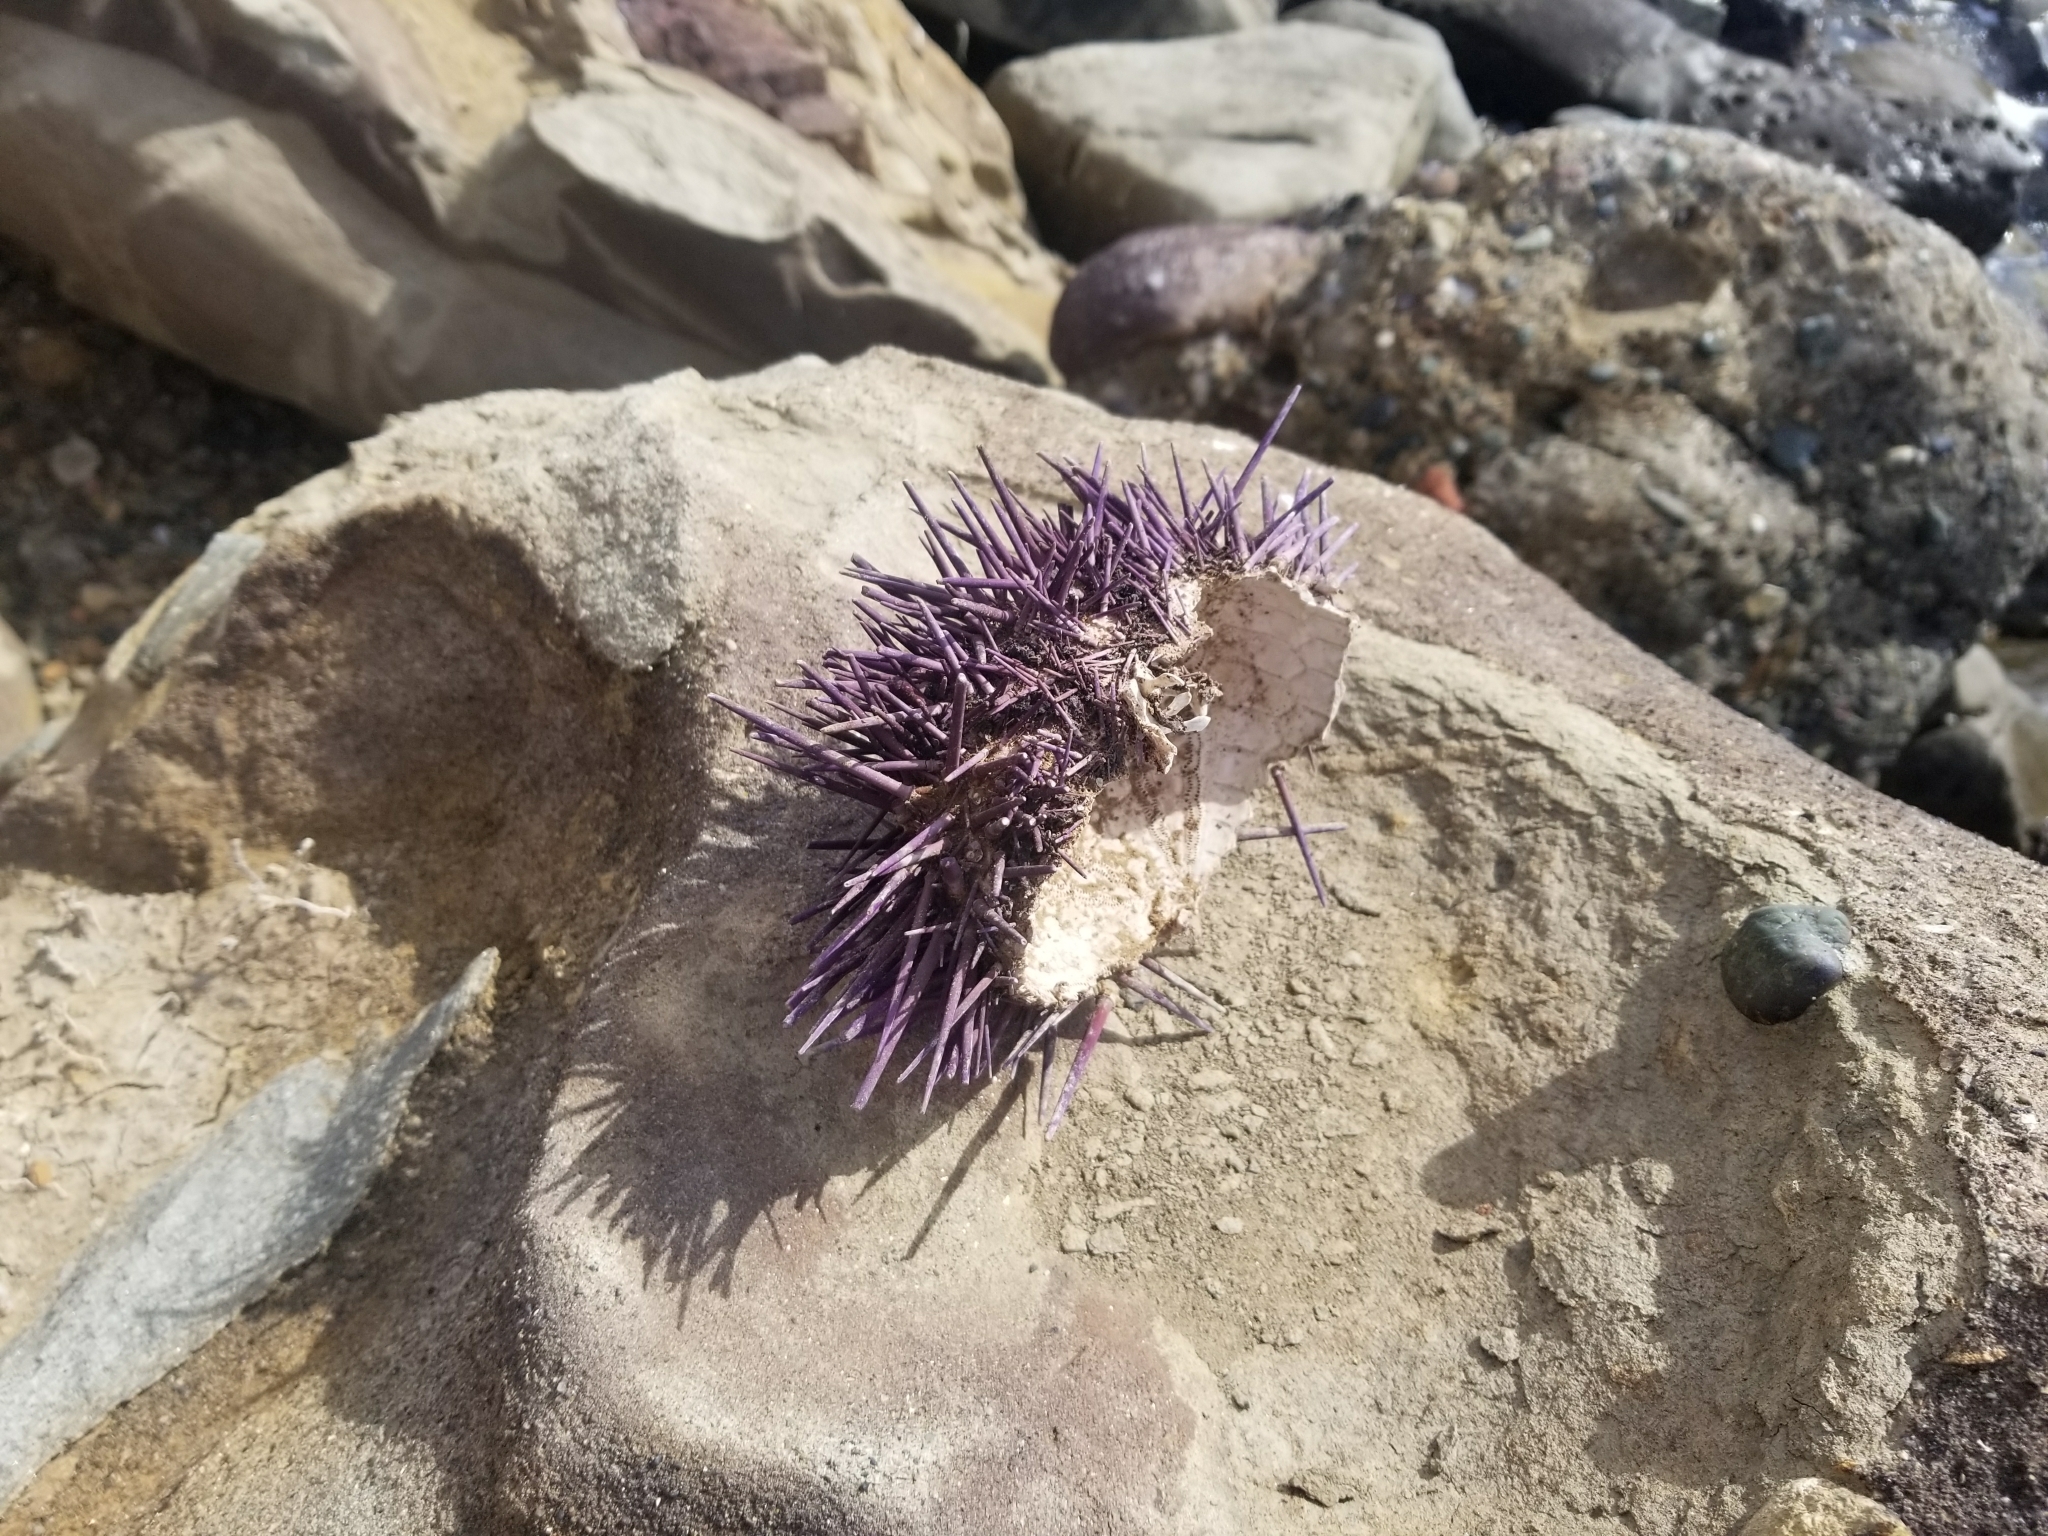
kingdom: Animalia
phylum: Echinodermata
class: Echinoidea
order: Camarodonta
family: Strongylocentrotidae
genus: Strongylocentrotus
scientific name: Strongylocentrotus purpuratus
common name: Purple sea urchin
